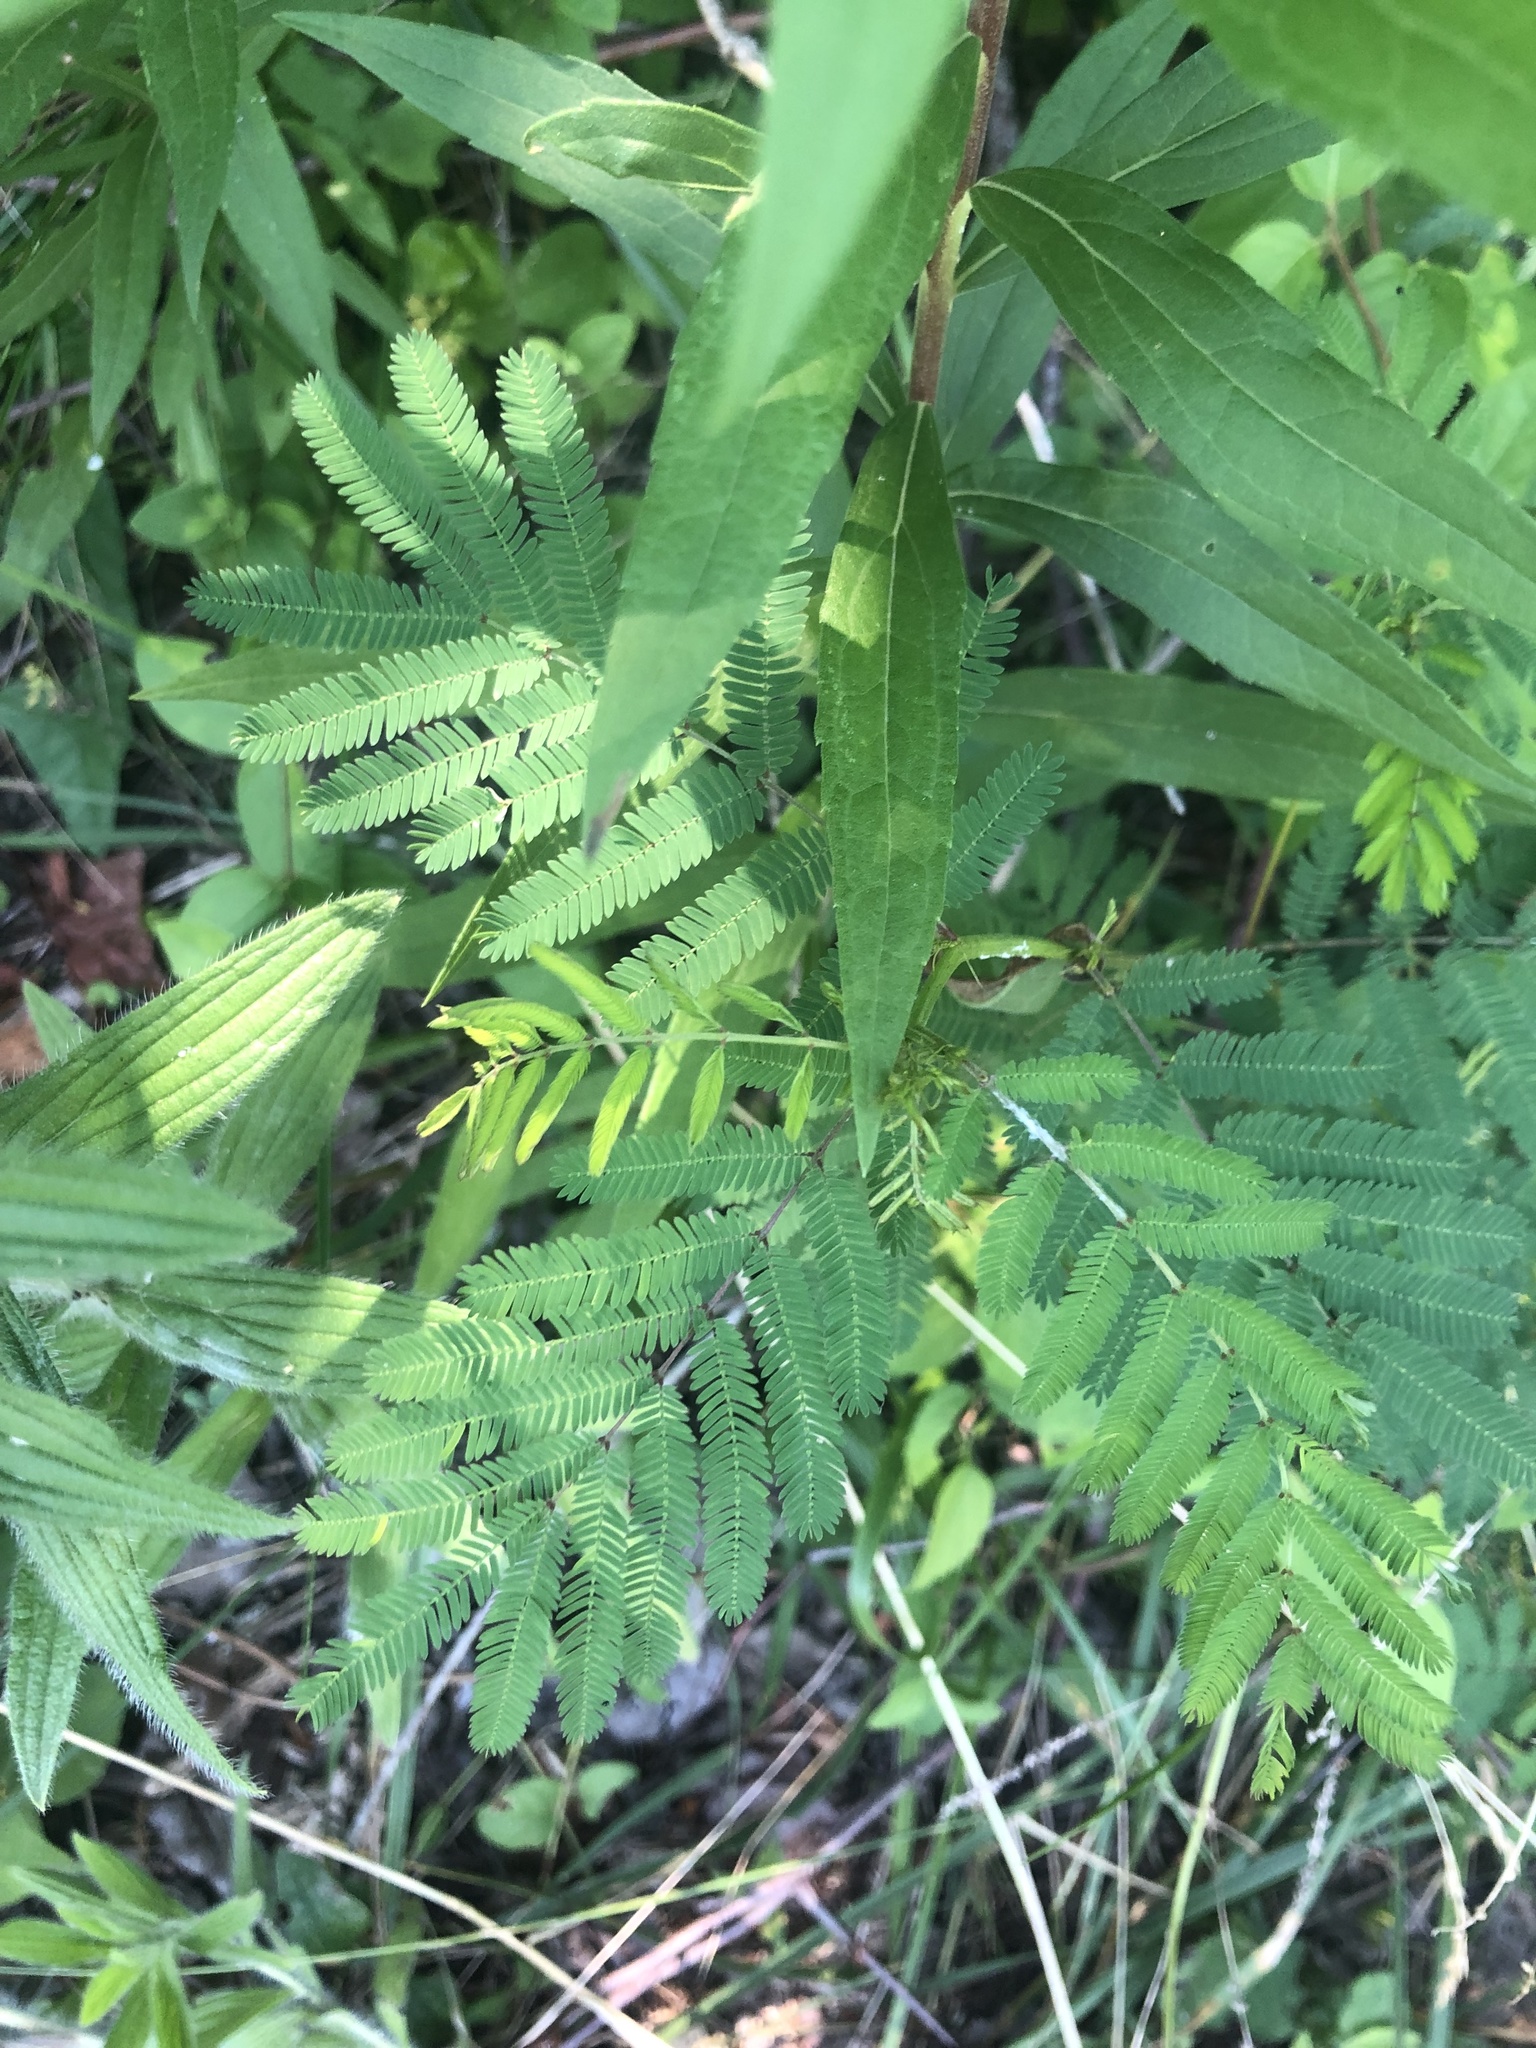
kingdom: Plantae
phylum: Tracheophyta
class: Magnoliopsida
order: Fabales
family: Fabaceae
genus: Desmanthus
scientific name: Desmanthus illinoensis
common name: Illinois bundle-flower
